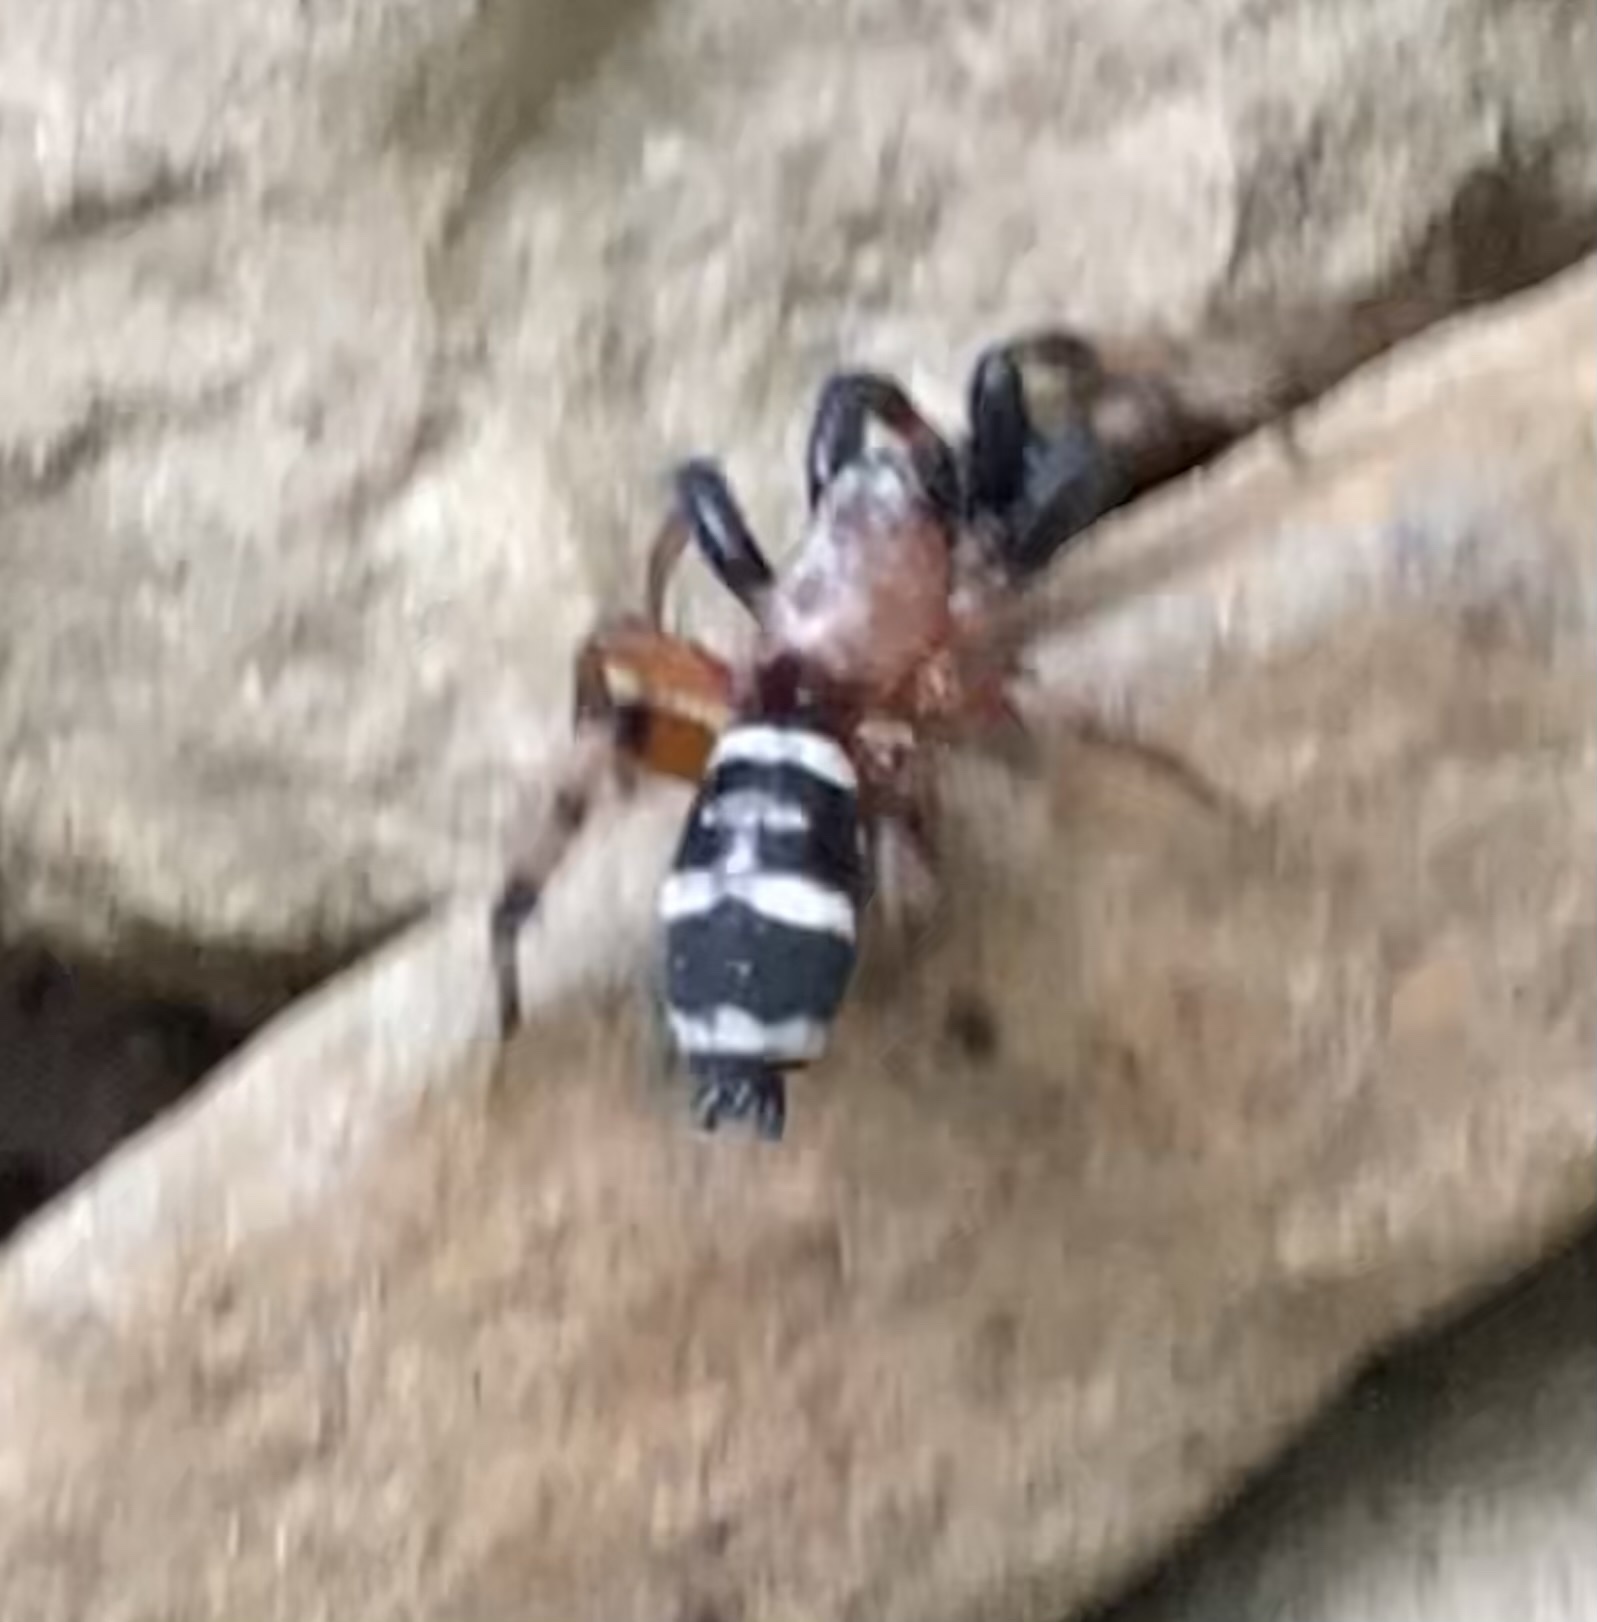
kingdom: Animalia
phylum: Arthropoda
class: Arachnida
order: Araneae
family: Gnaphosidae
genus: Sergiolus
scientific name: Sergiolus capulatus
